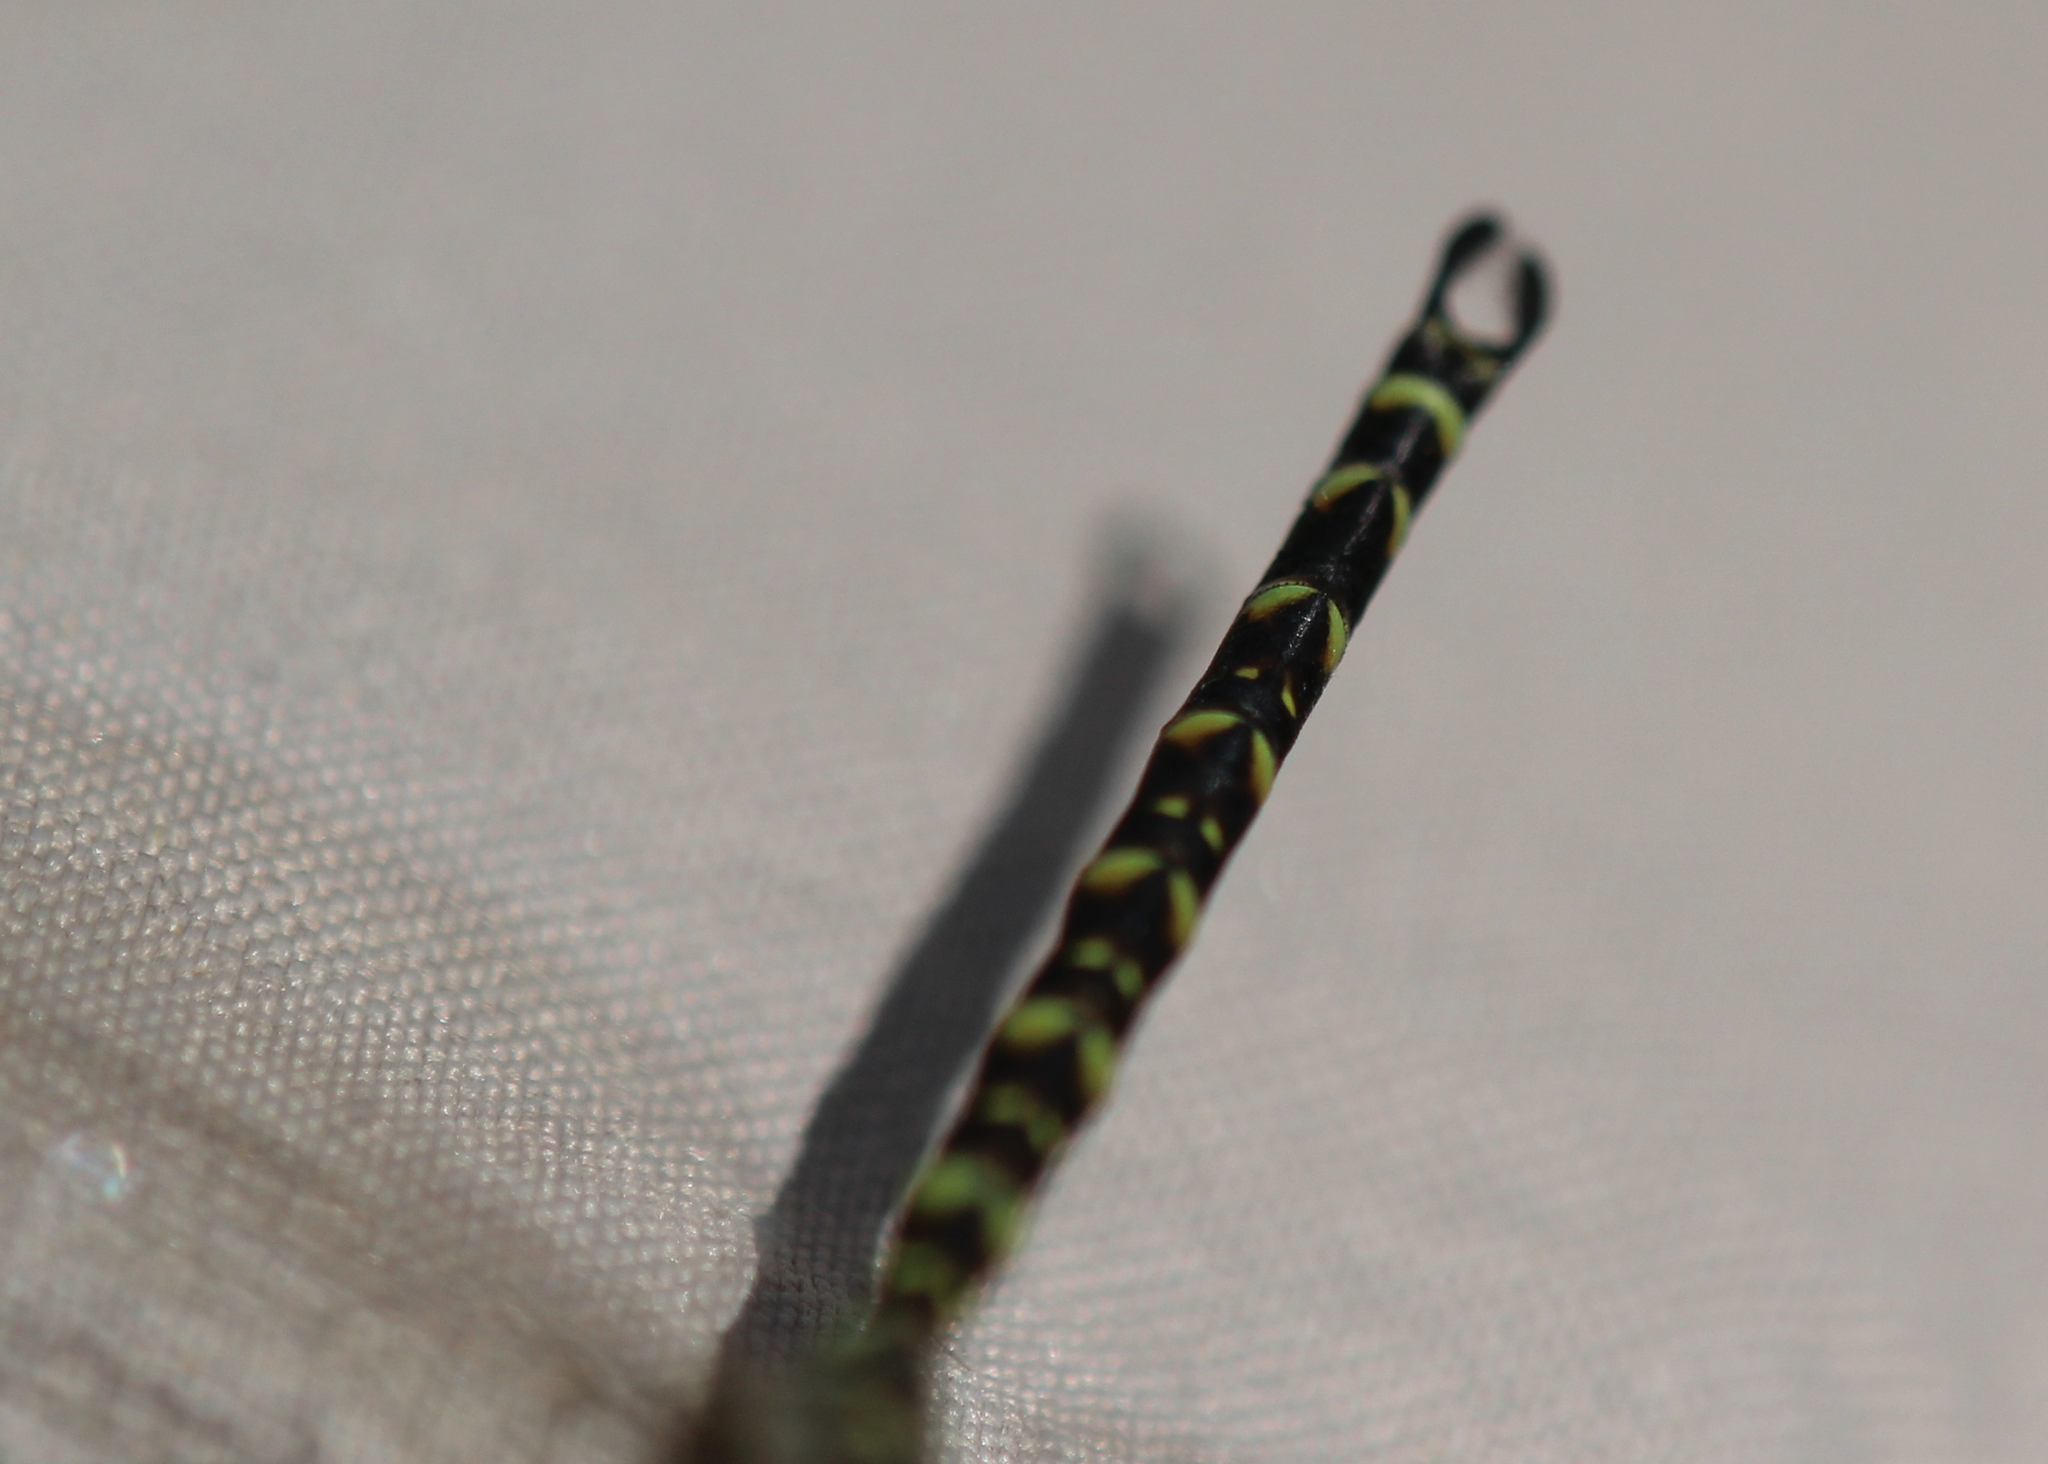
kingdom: Animalia
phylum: Arthropoda
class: Insecta
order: Odonata
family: Aeshnidae
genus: Gomphaeschna
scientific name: Gomphaeschna furcillata
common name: Harlequin darner
